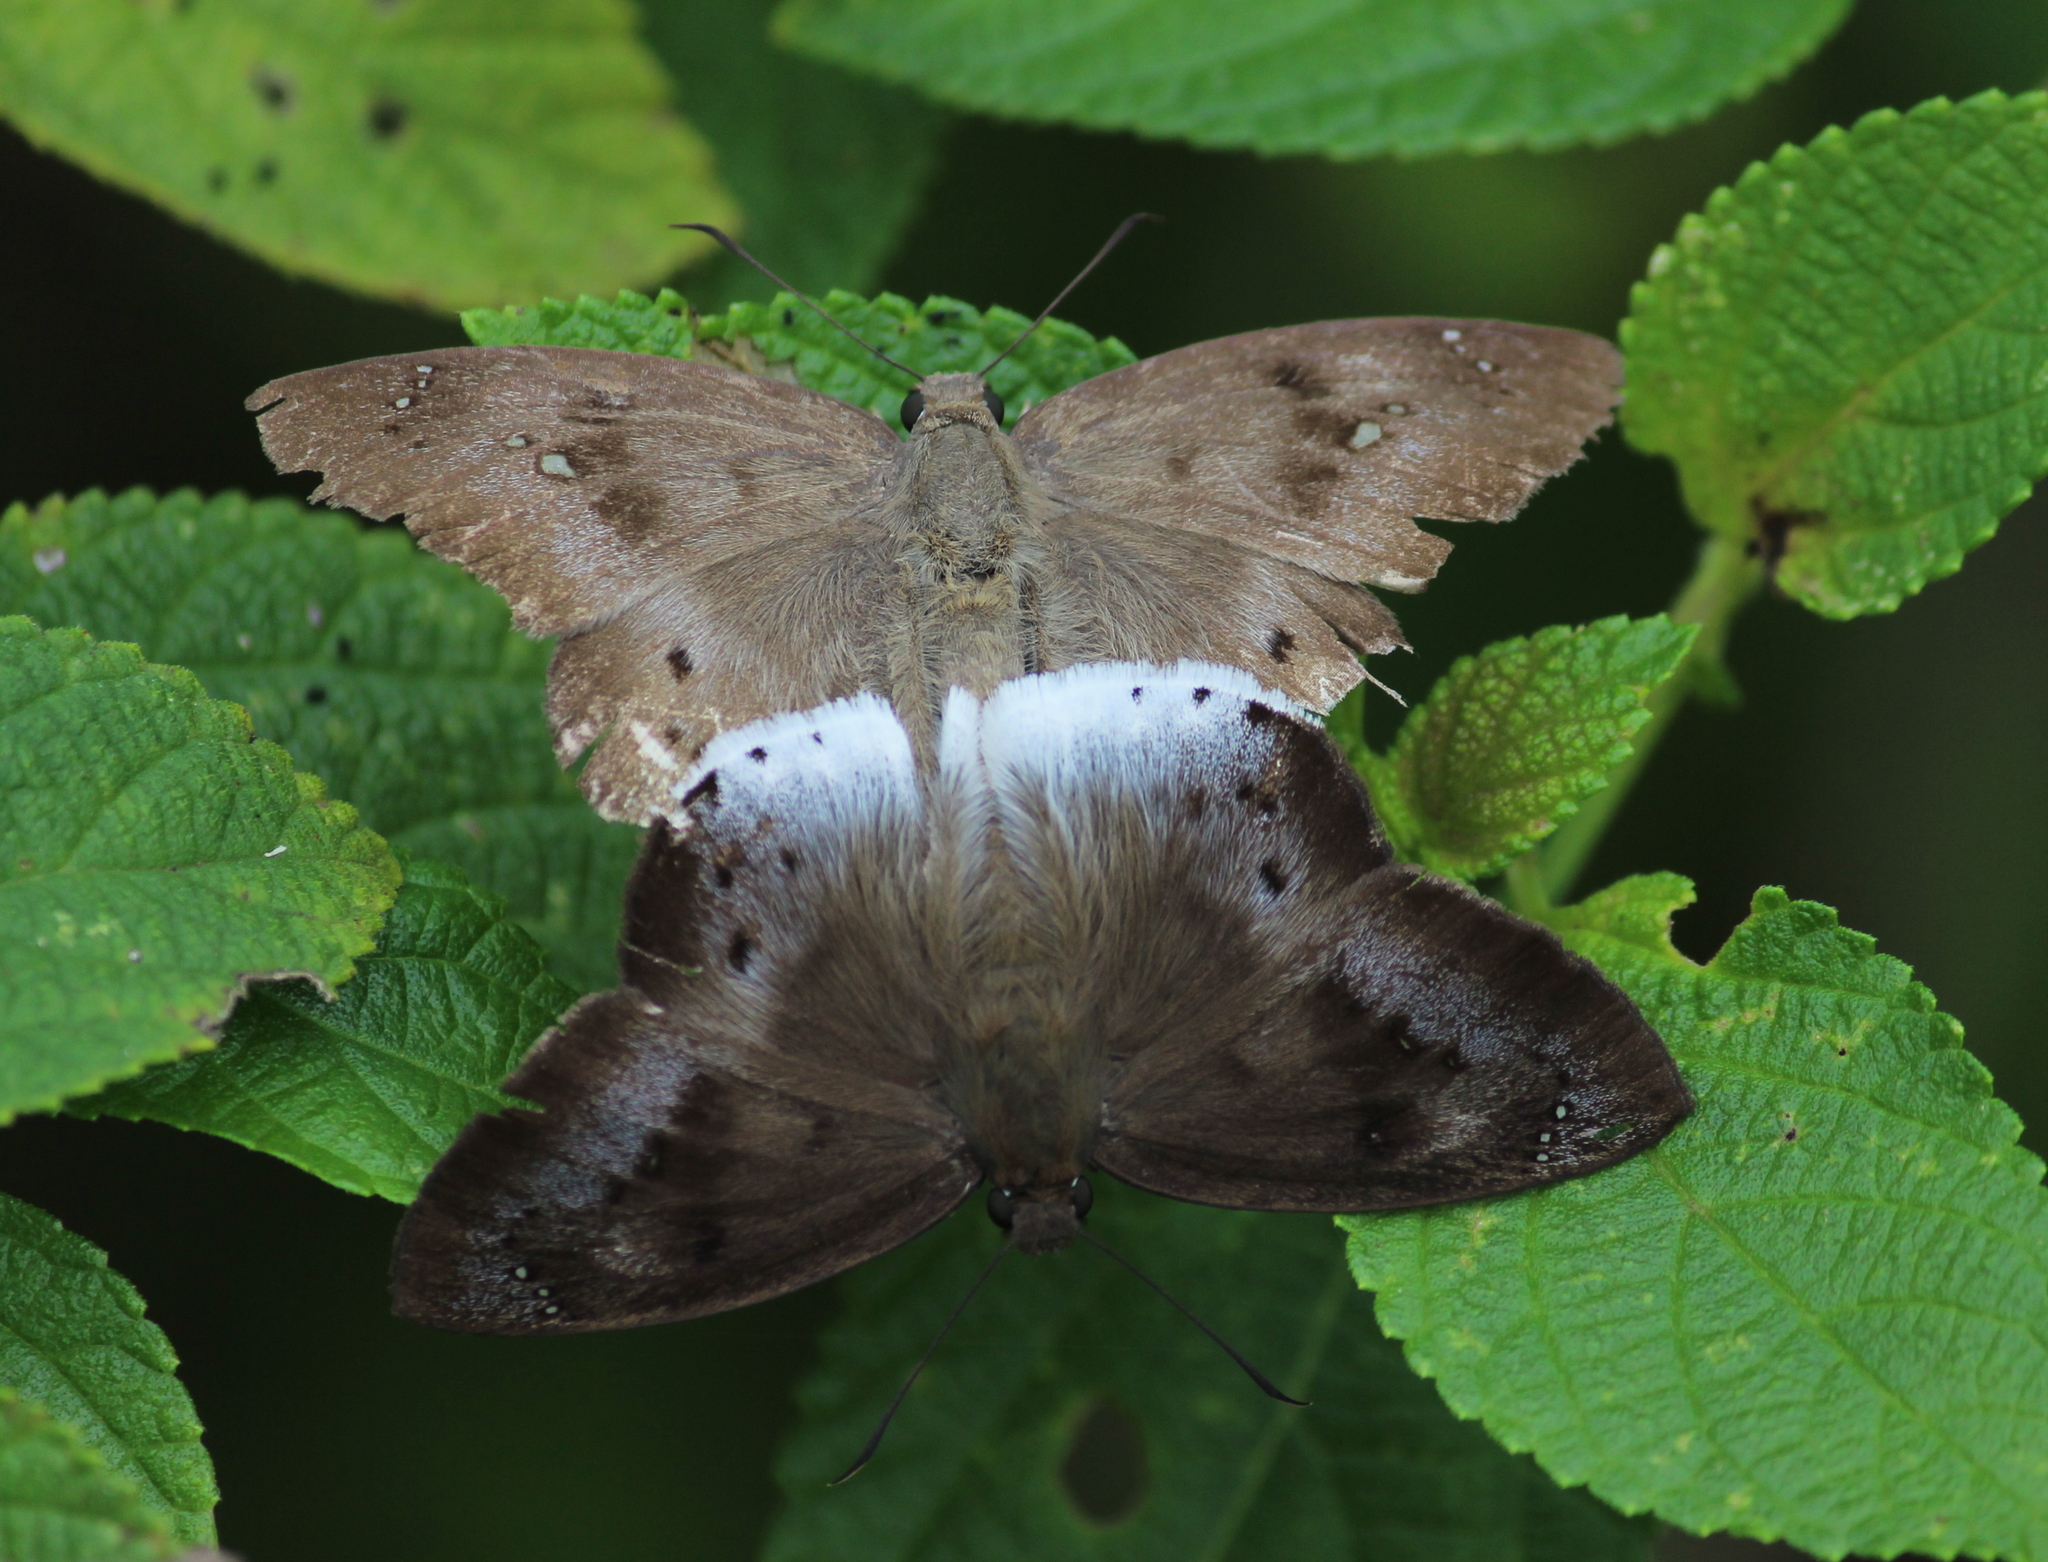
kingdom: Animalia
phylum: Arthropoda
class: Insecta
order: Lepidoptera
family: Hesperiidae
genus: Tagiades
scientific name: Tagiades japetus
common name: Pied flat
